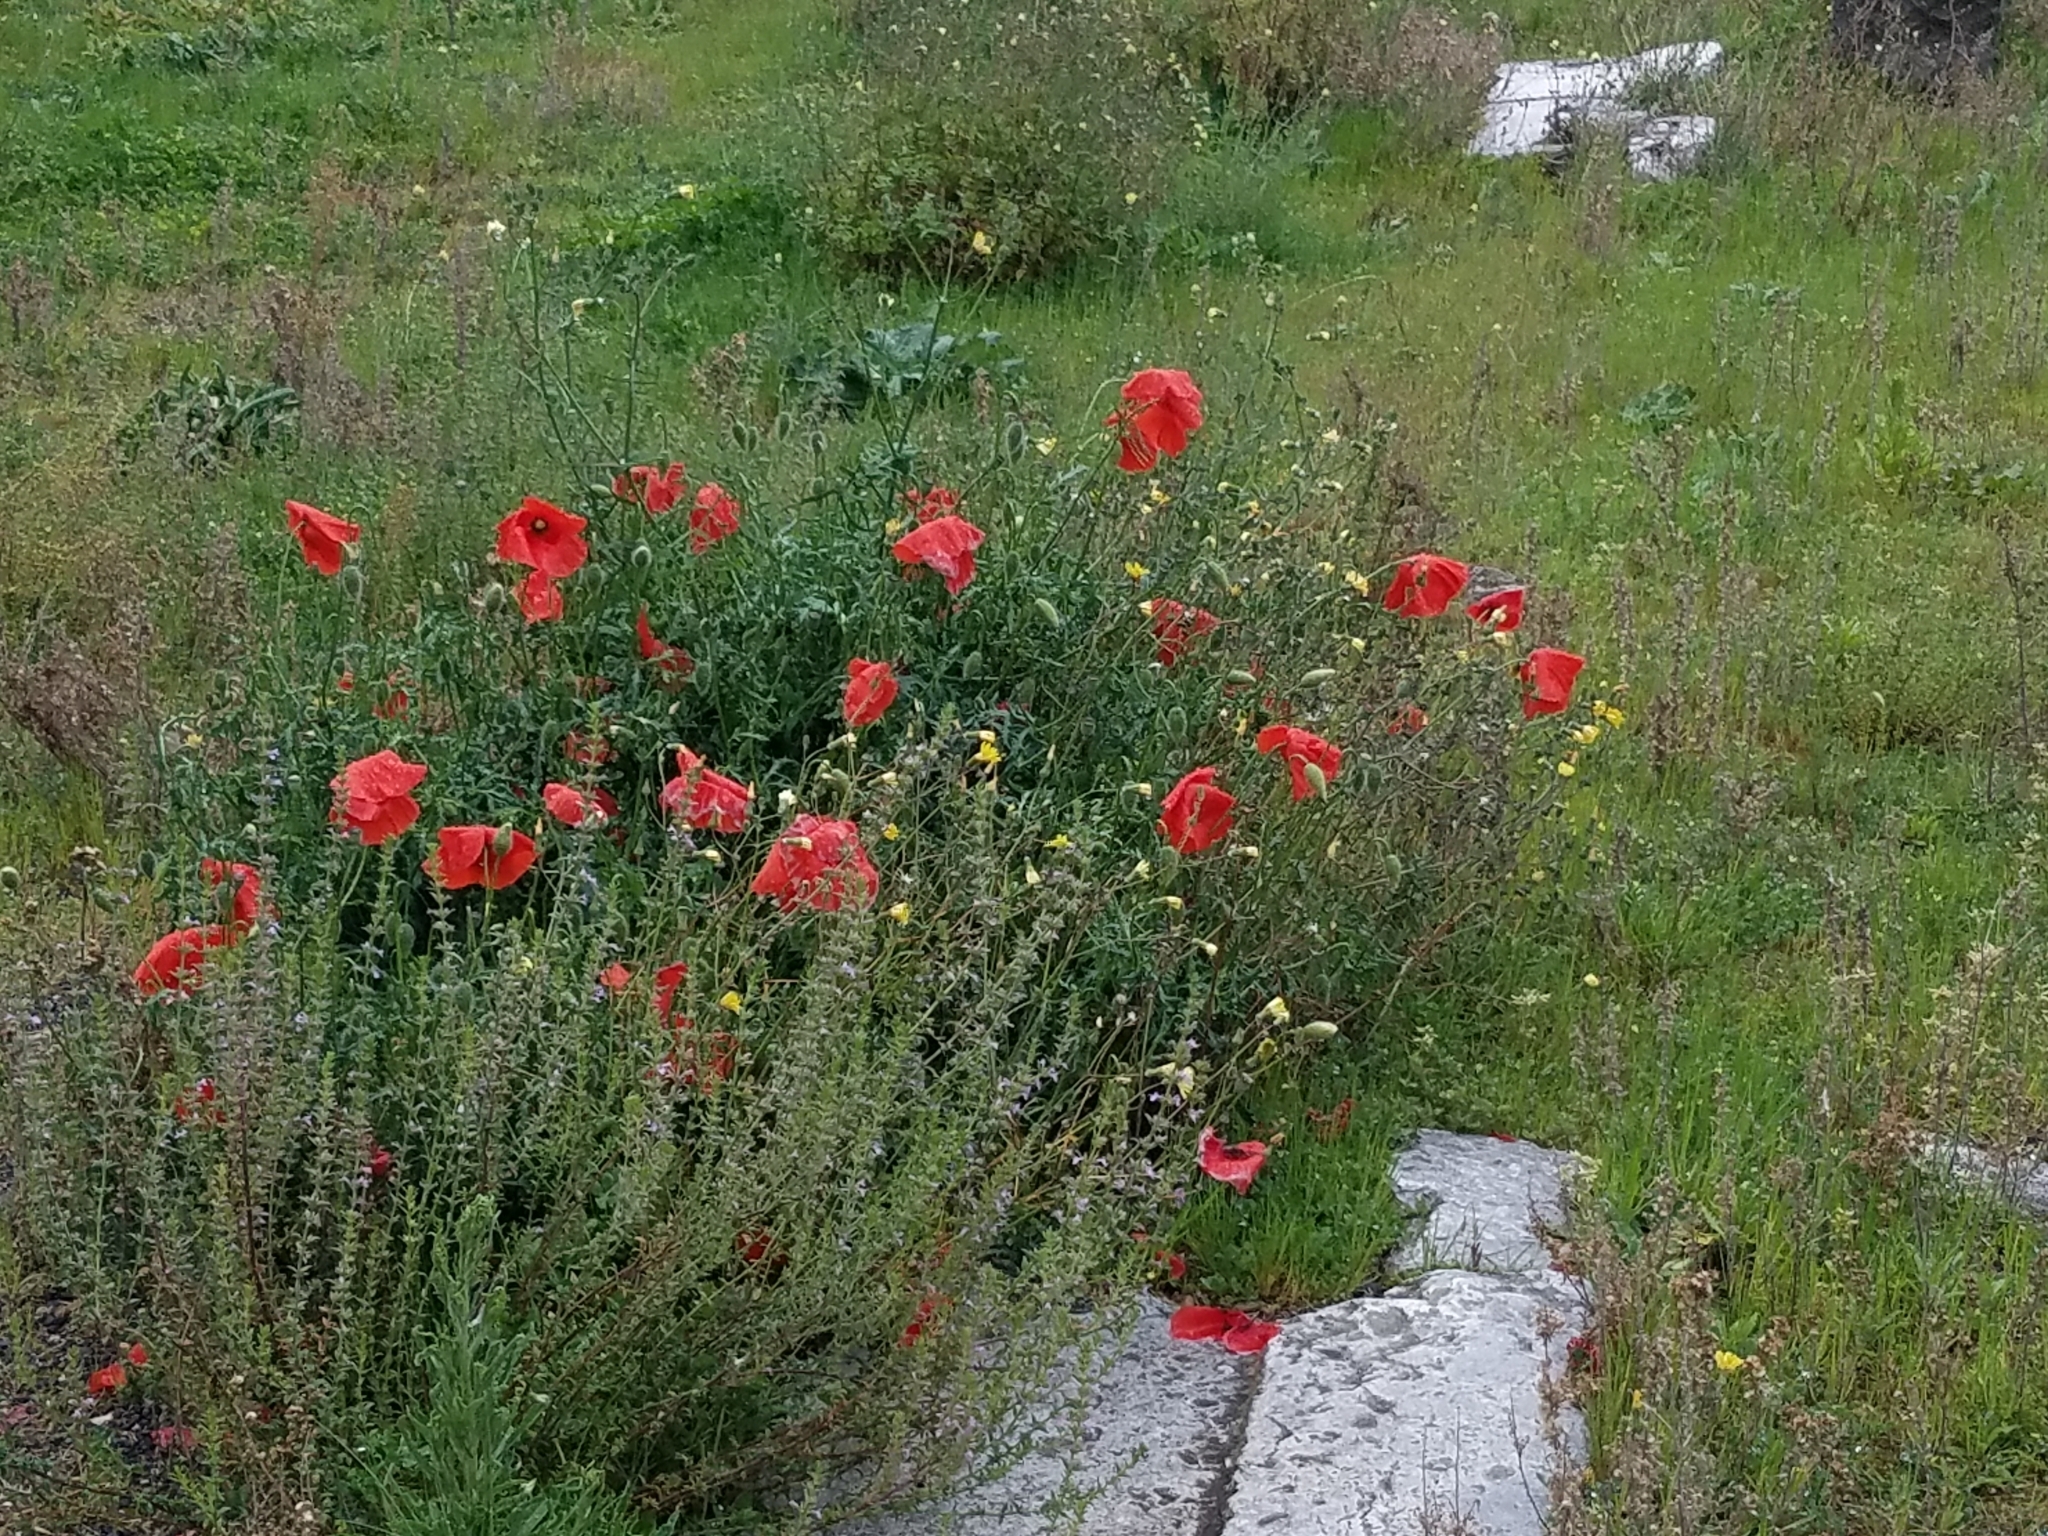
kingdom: Plantae
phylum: Tracheophyta
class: Magnoliopsida
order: Ranunculales
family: Papaveraceae
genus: Papaver
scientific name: Papaver rhoeas
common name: Corn poppy
